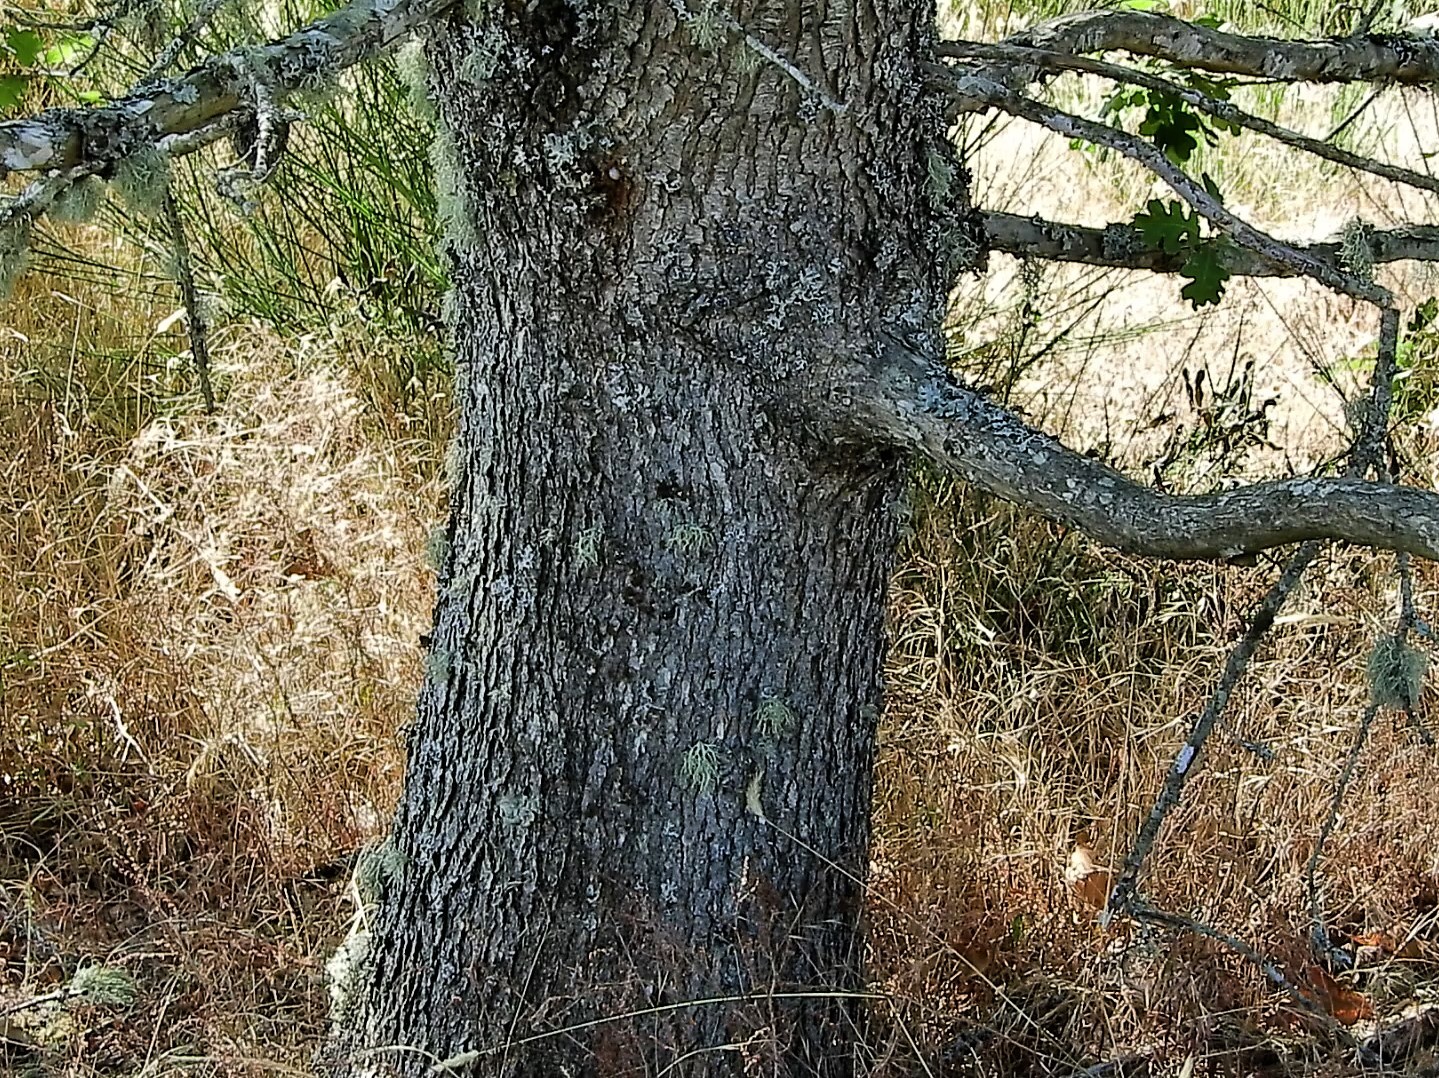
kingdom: Plantae
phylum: Tracheophyta
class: Magnoliopsida
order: Fagales
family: Fagaceae
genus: Quercus
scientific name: Quercus garryana
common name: Garry oak
